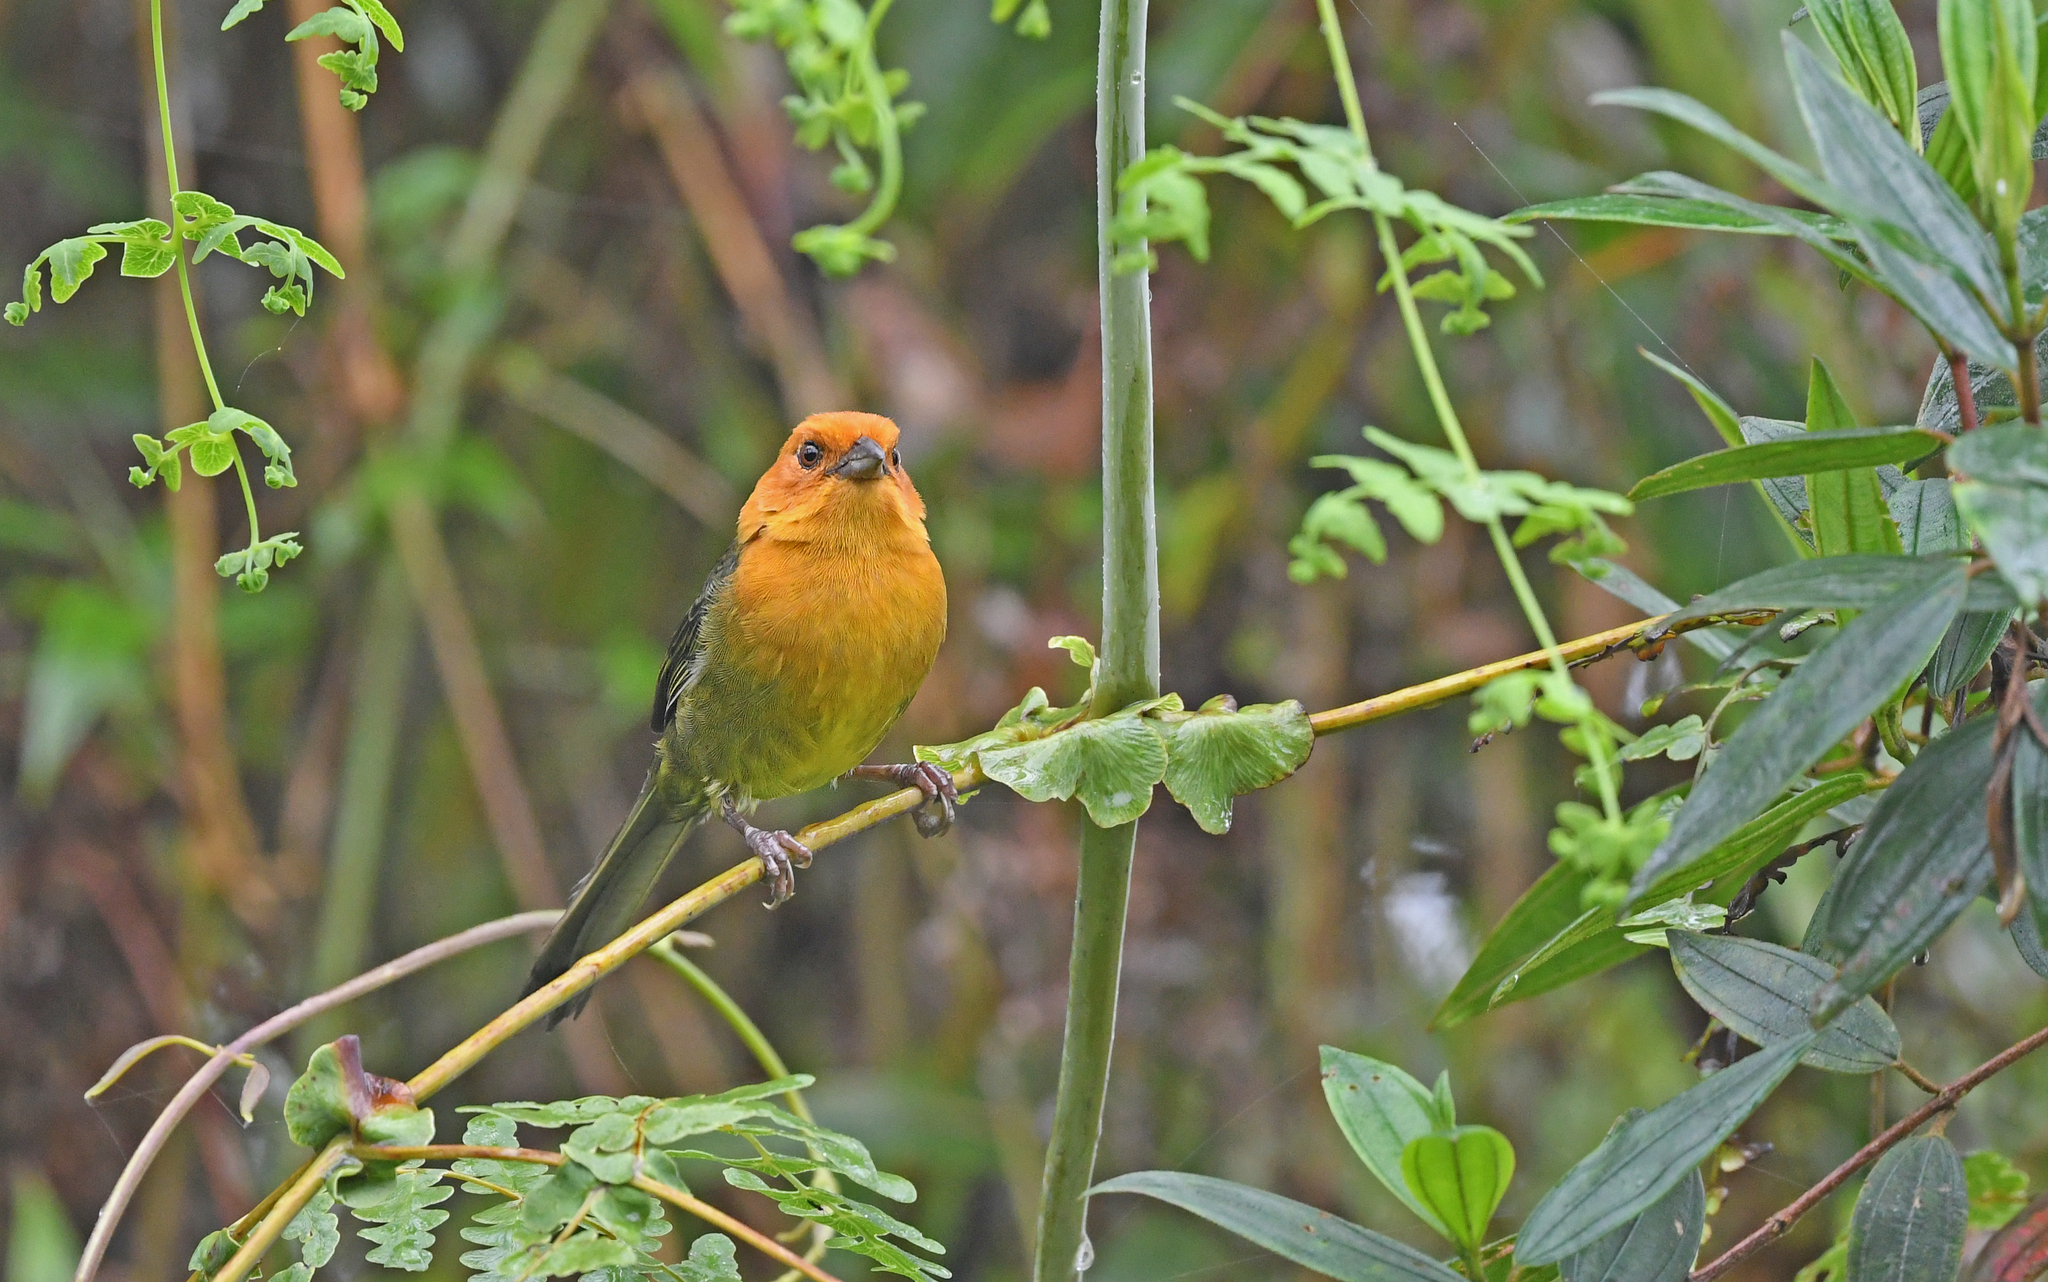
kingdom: Animalia
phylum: Chordata
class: Aves
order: Passeriformes
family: Passerellidae
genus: Atlapetes
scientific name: Atlapetes semirufus
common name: Ochre-breasted brushfinch
